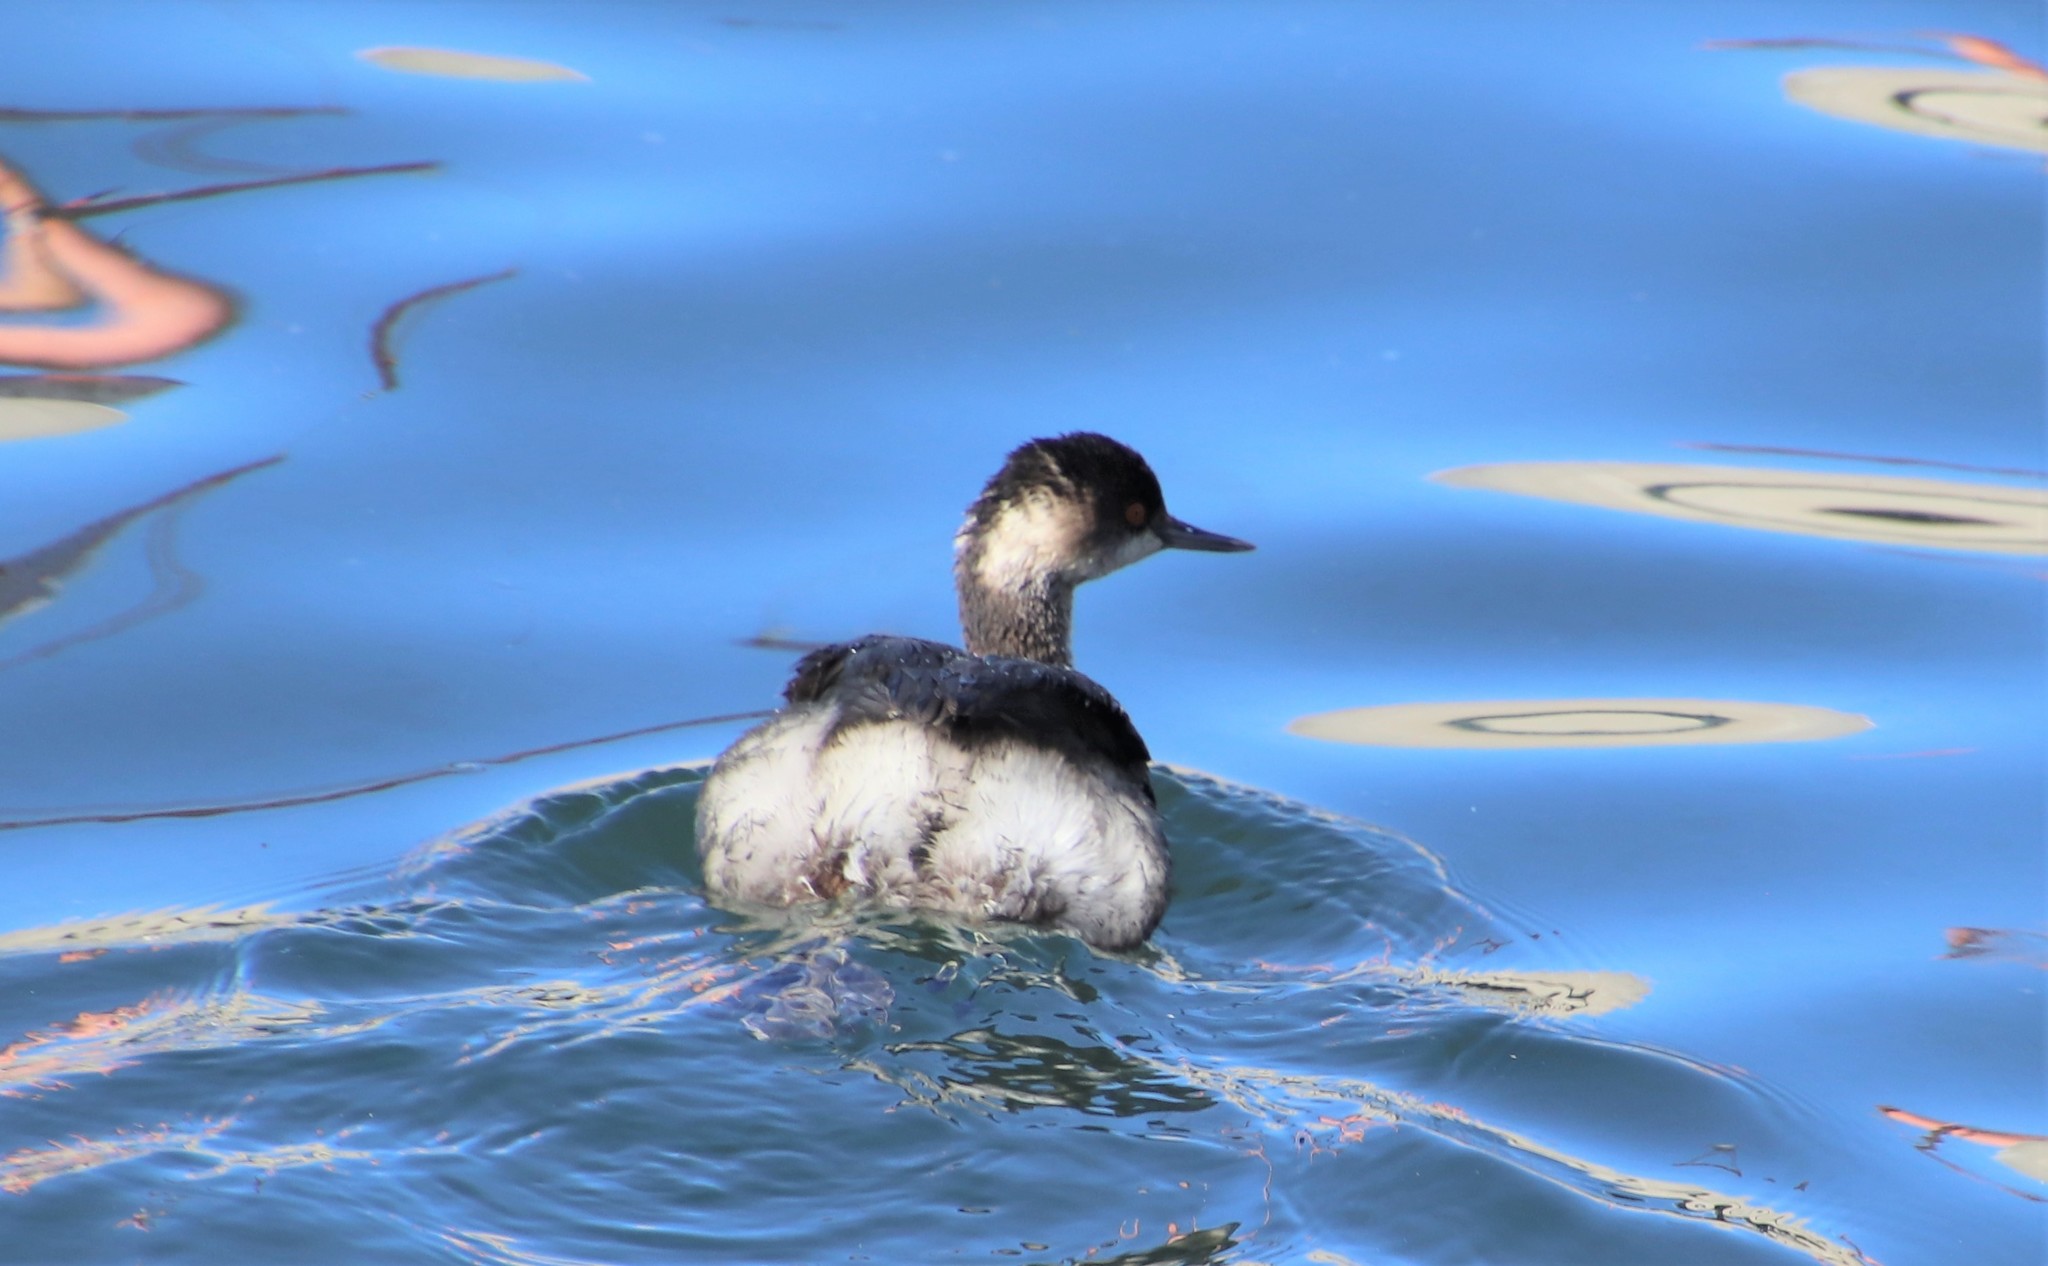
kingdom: Animalia
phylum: Chordata
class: Aves
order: Podicipediformes
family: Podicipedidae
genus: Podiceps
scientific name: Podiceps nigricollis
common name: Black-necked grebe
